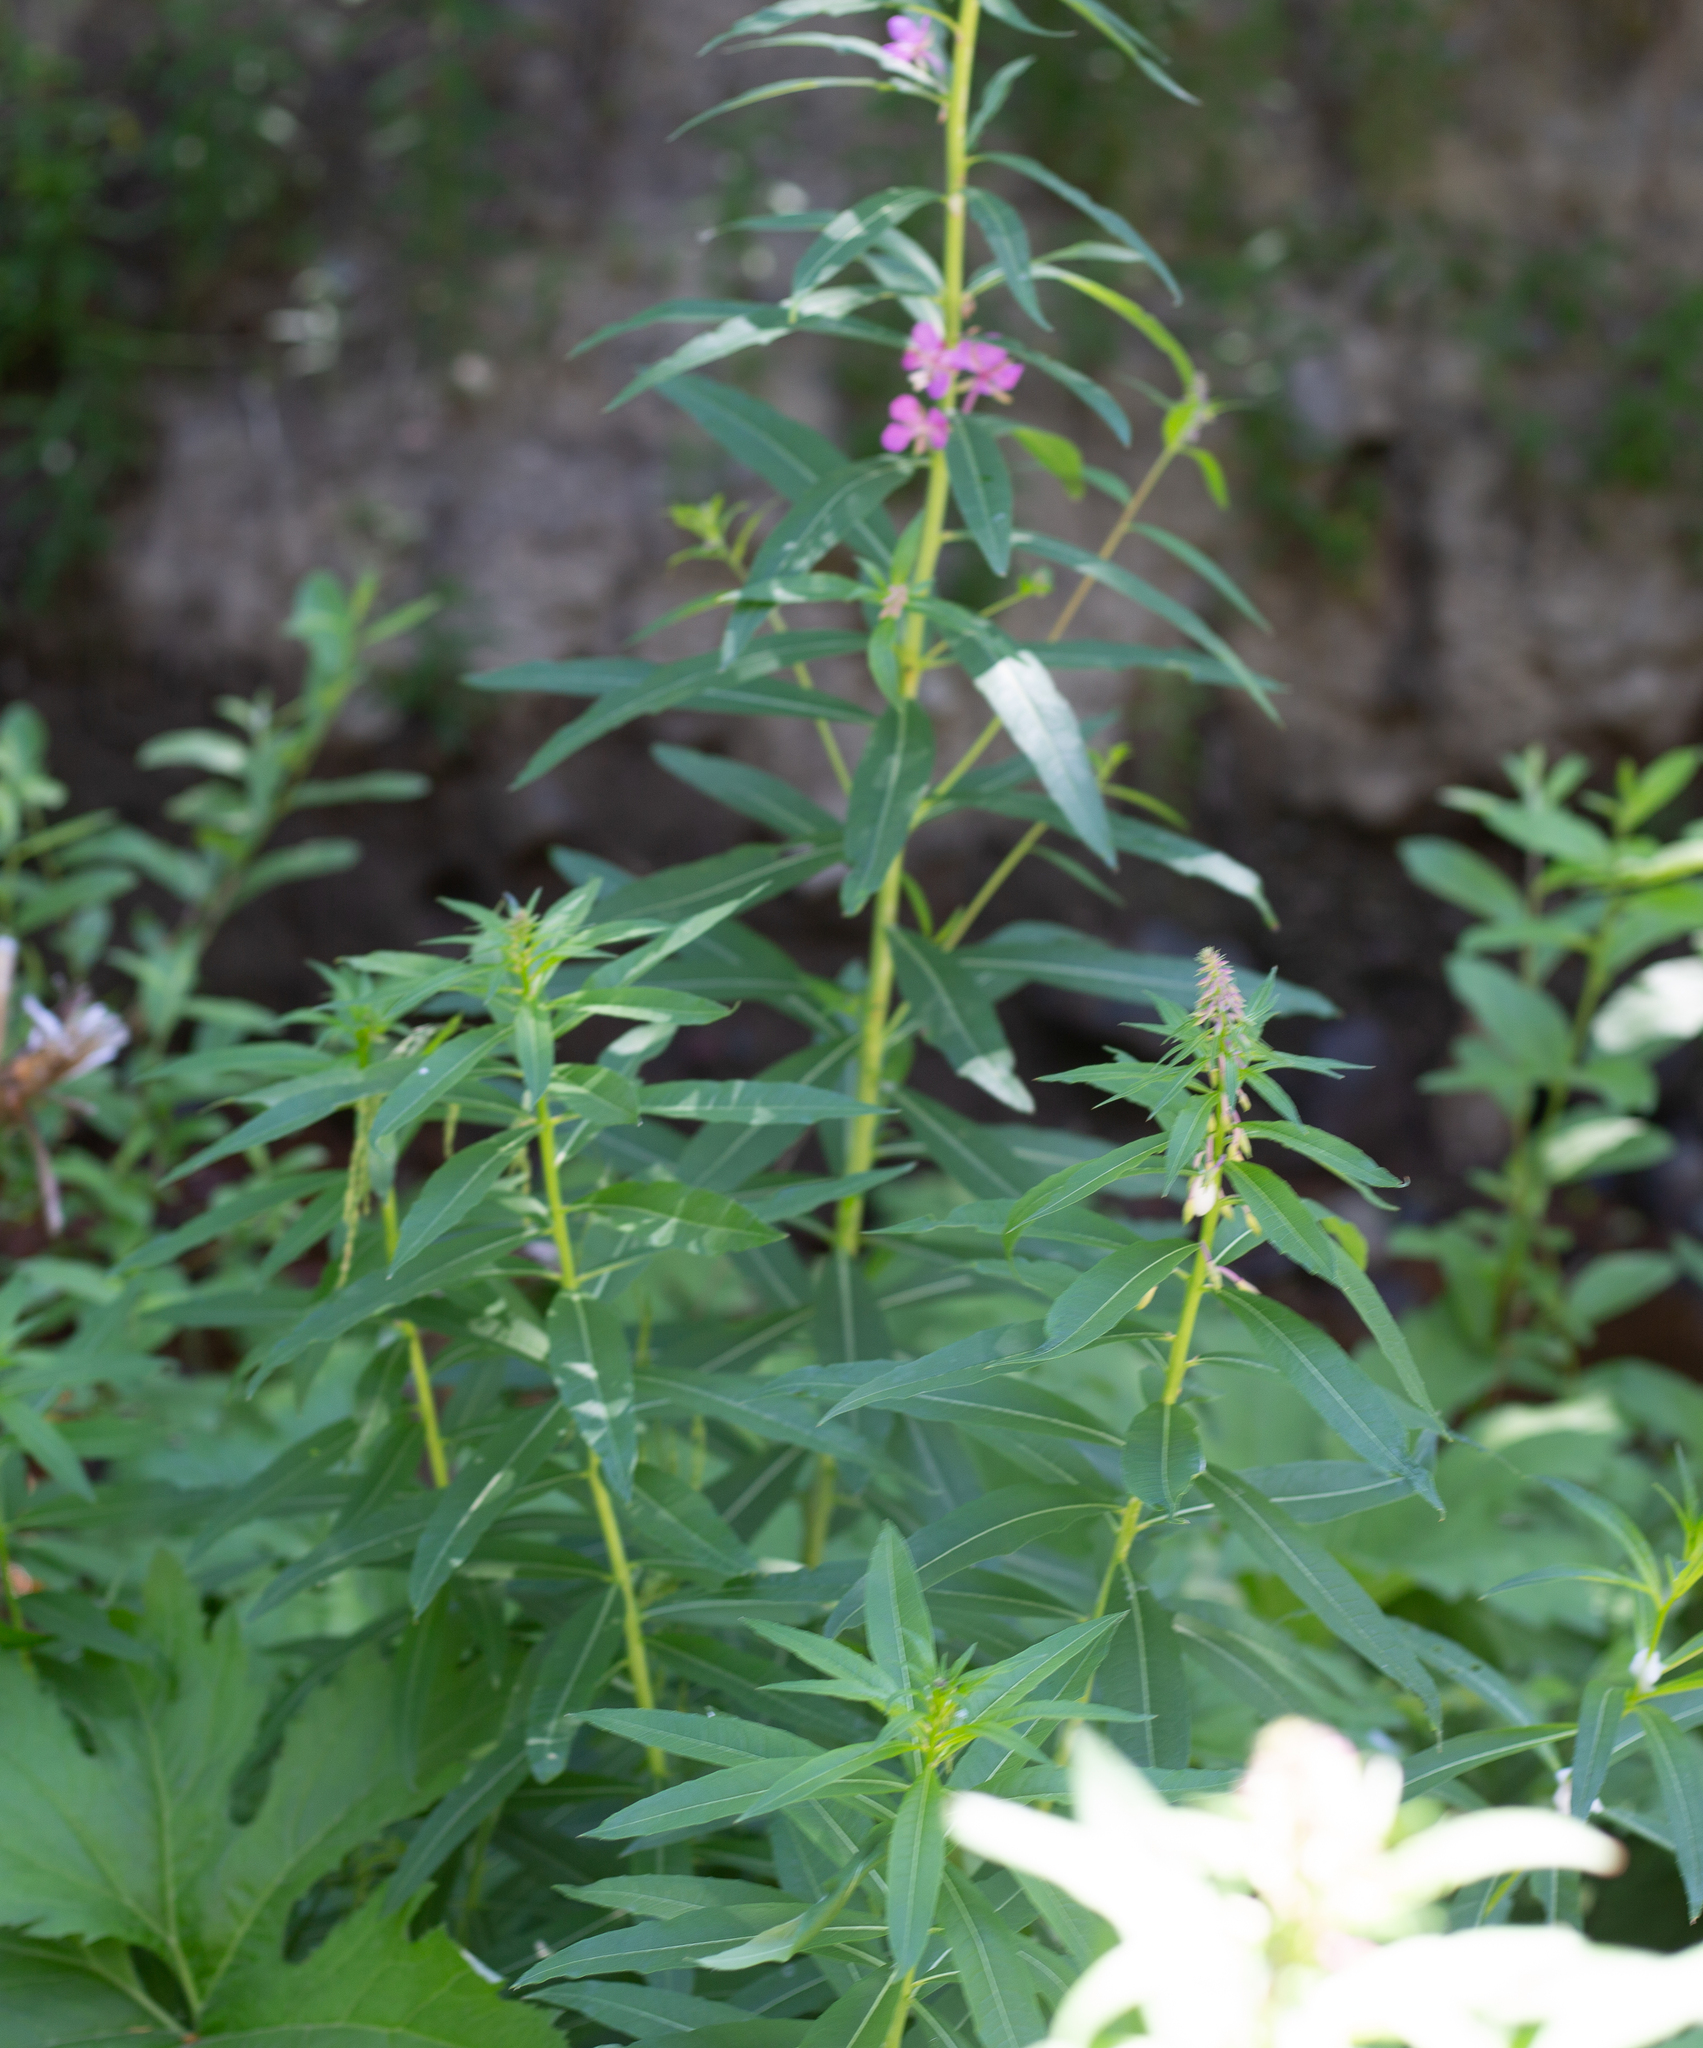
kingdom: Plantae
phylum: Tracheophyta
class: Magnoliopsida
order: Myrtales
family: Onagraceae
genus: Chamaenerion
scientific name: Chamaenerion angustifolium
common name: Fireweed
